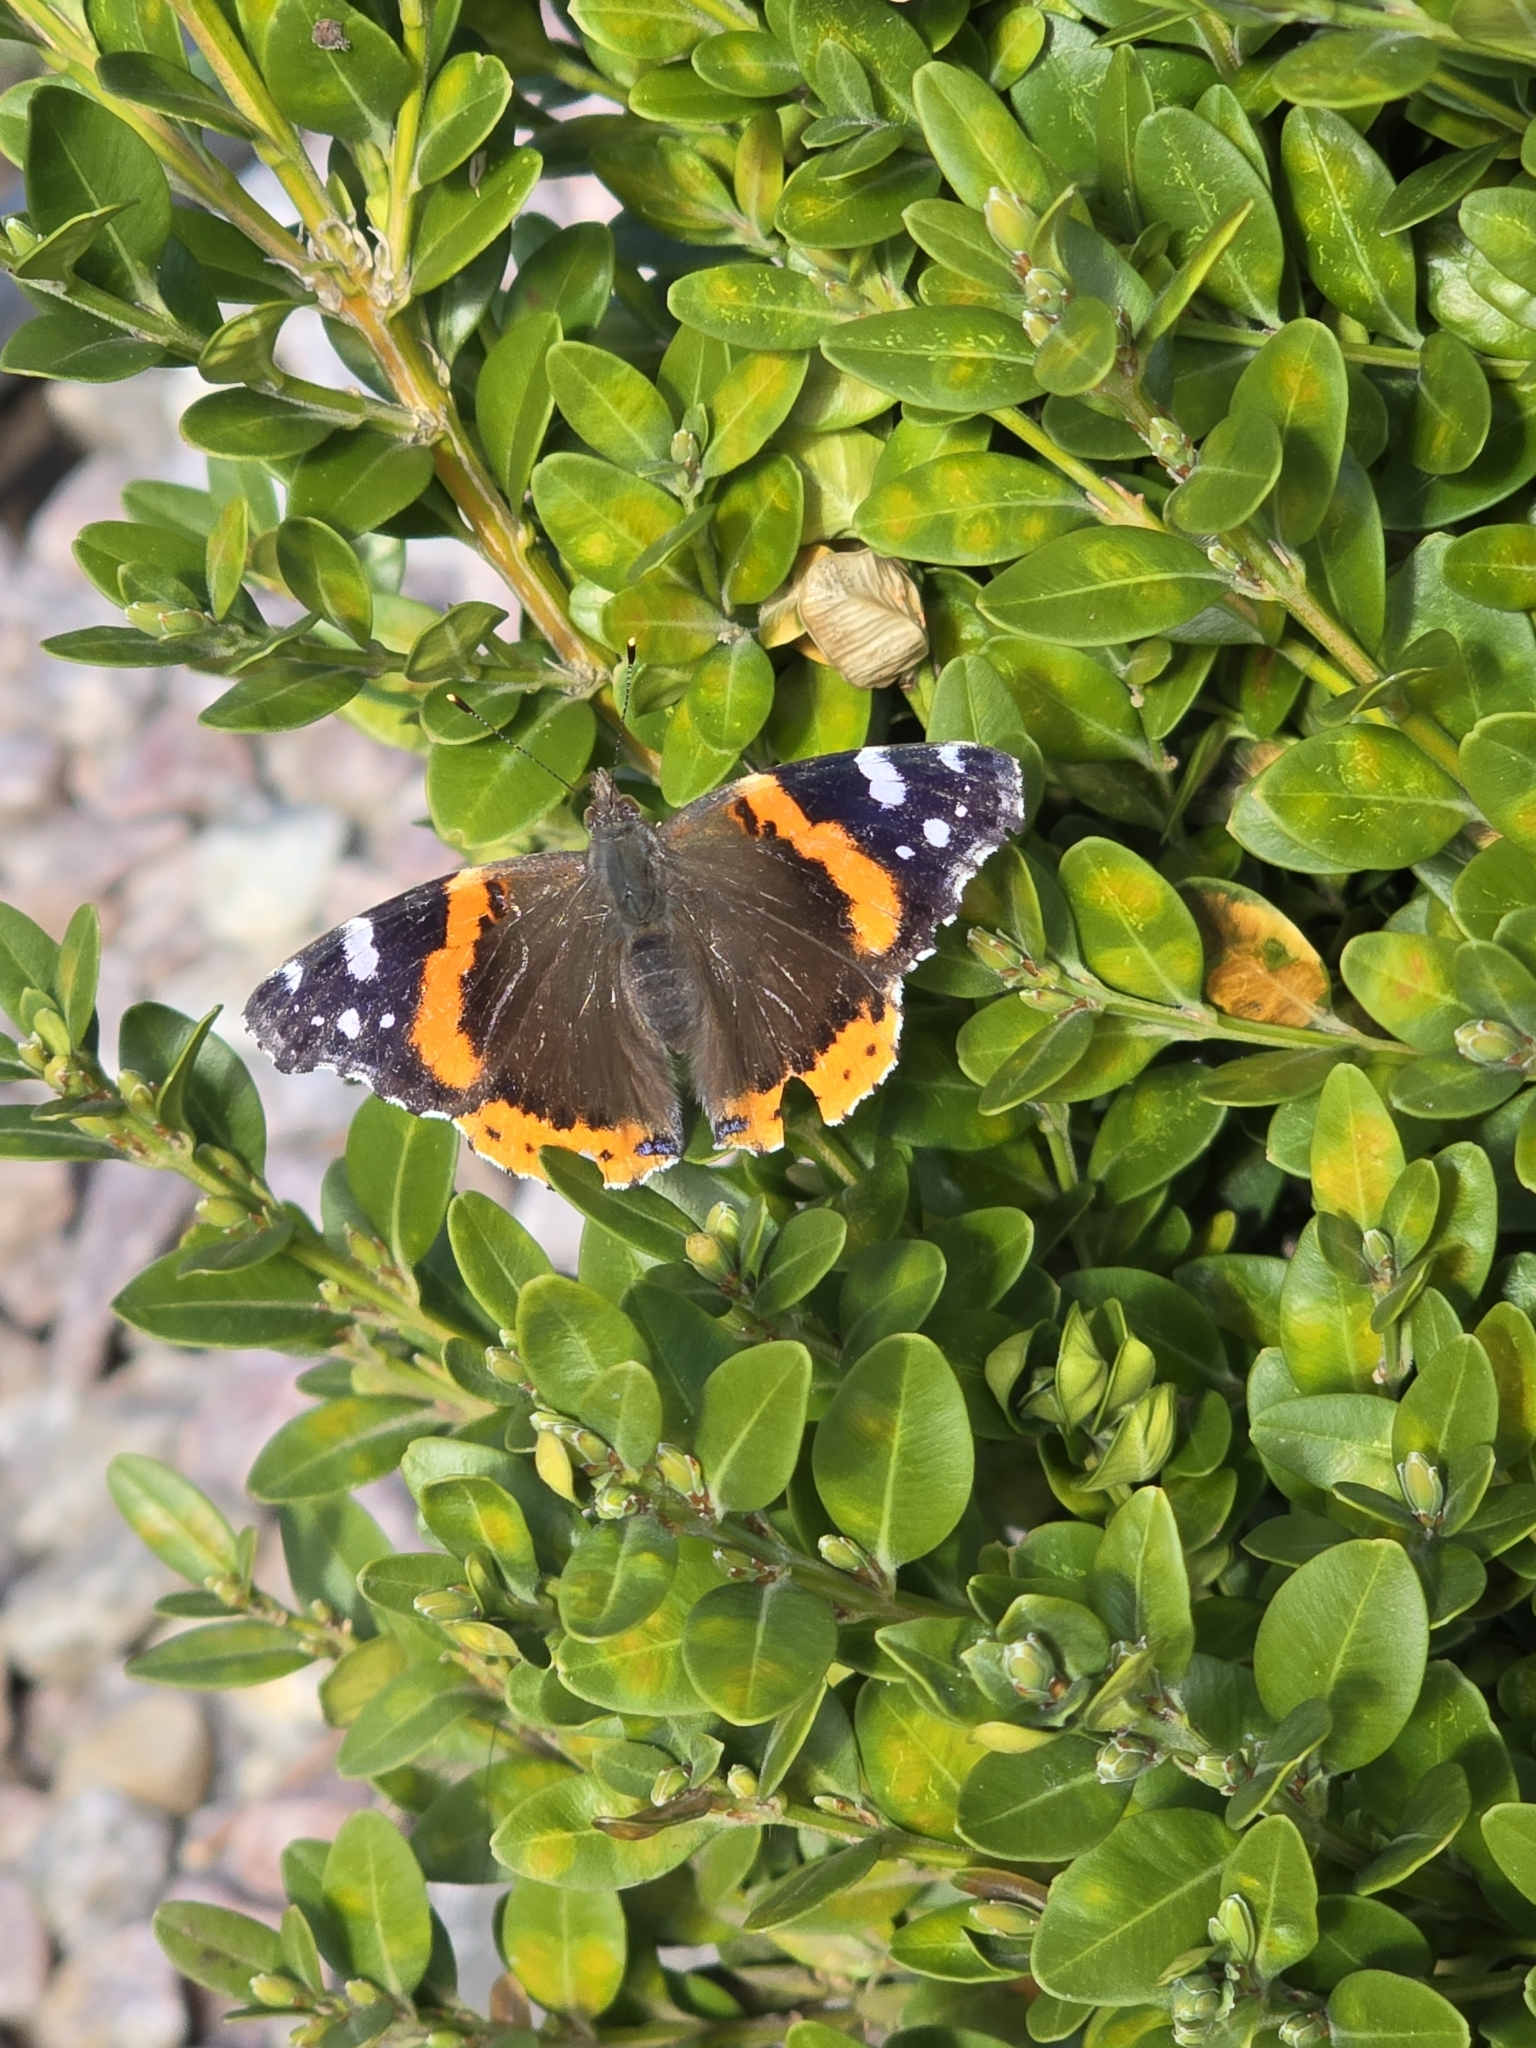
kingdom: Animalia
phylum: Arthropoda
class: Insecta
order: Lepidoptera
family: Nymphalidae
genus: Vanessa
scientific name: Vanessa atalanta
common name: Red admiral
